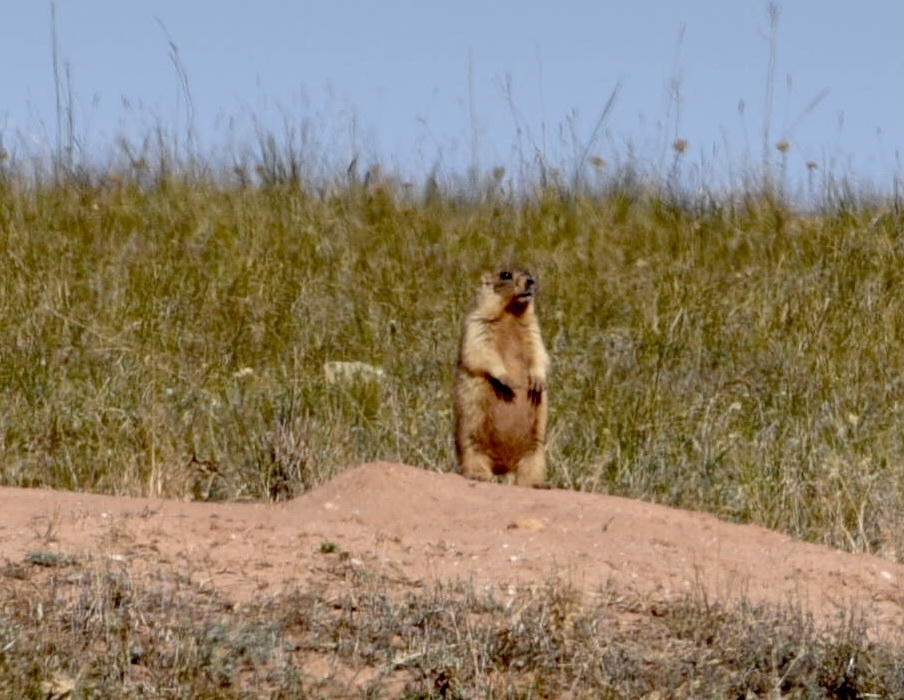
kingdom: Animalia
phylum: Chordata
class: Mammalia
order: Rodentia
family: Sciuridae
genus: Marmota
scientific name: Marmota bobak
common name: Bobak marmot
